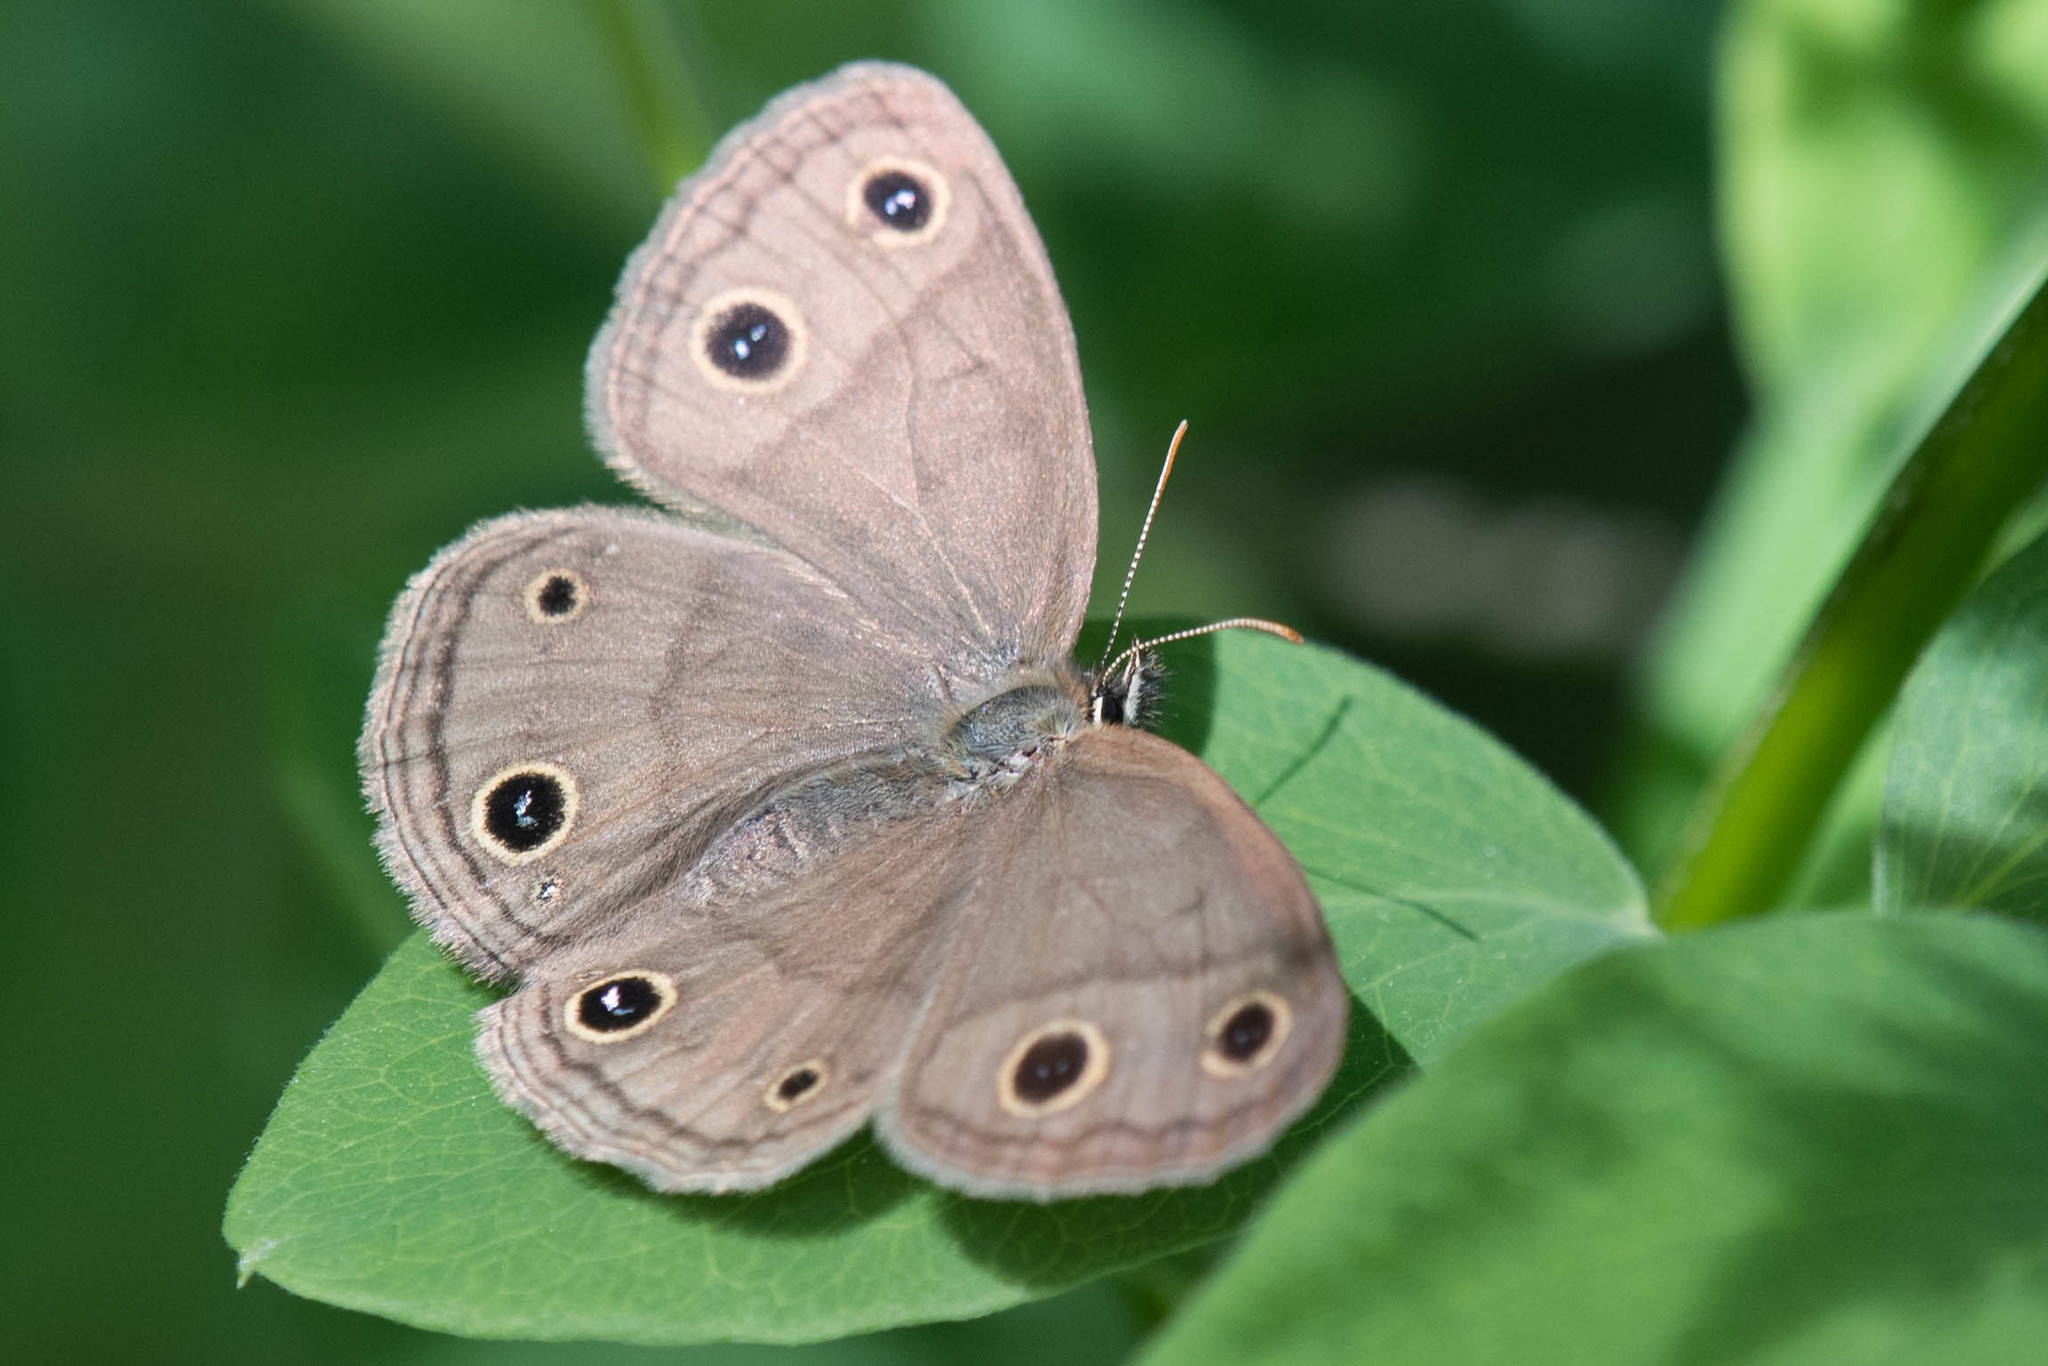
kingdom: Animalia
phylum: Arthropoda
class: Insecta
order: Lepidoptera
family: Nymphalidae
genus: Euptychia
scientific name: Euptychia cymela
